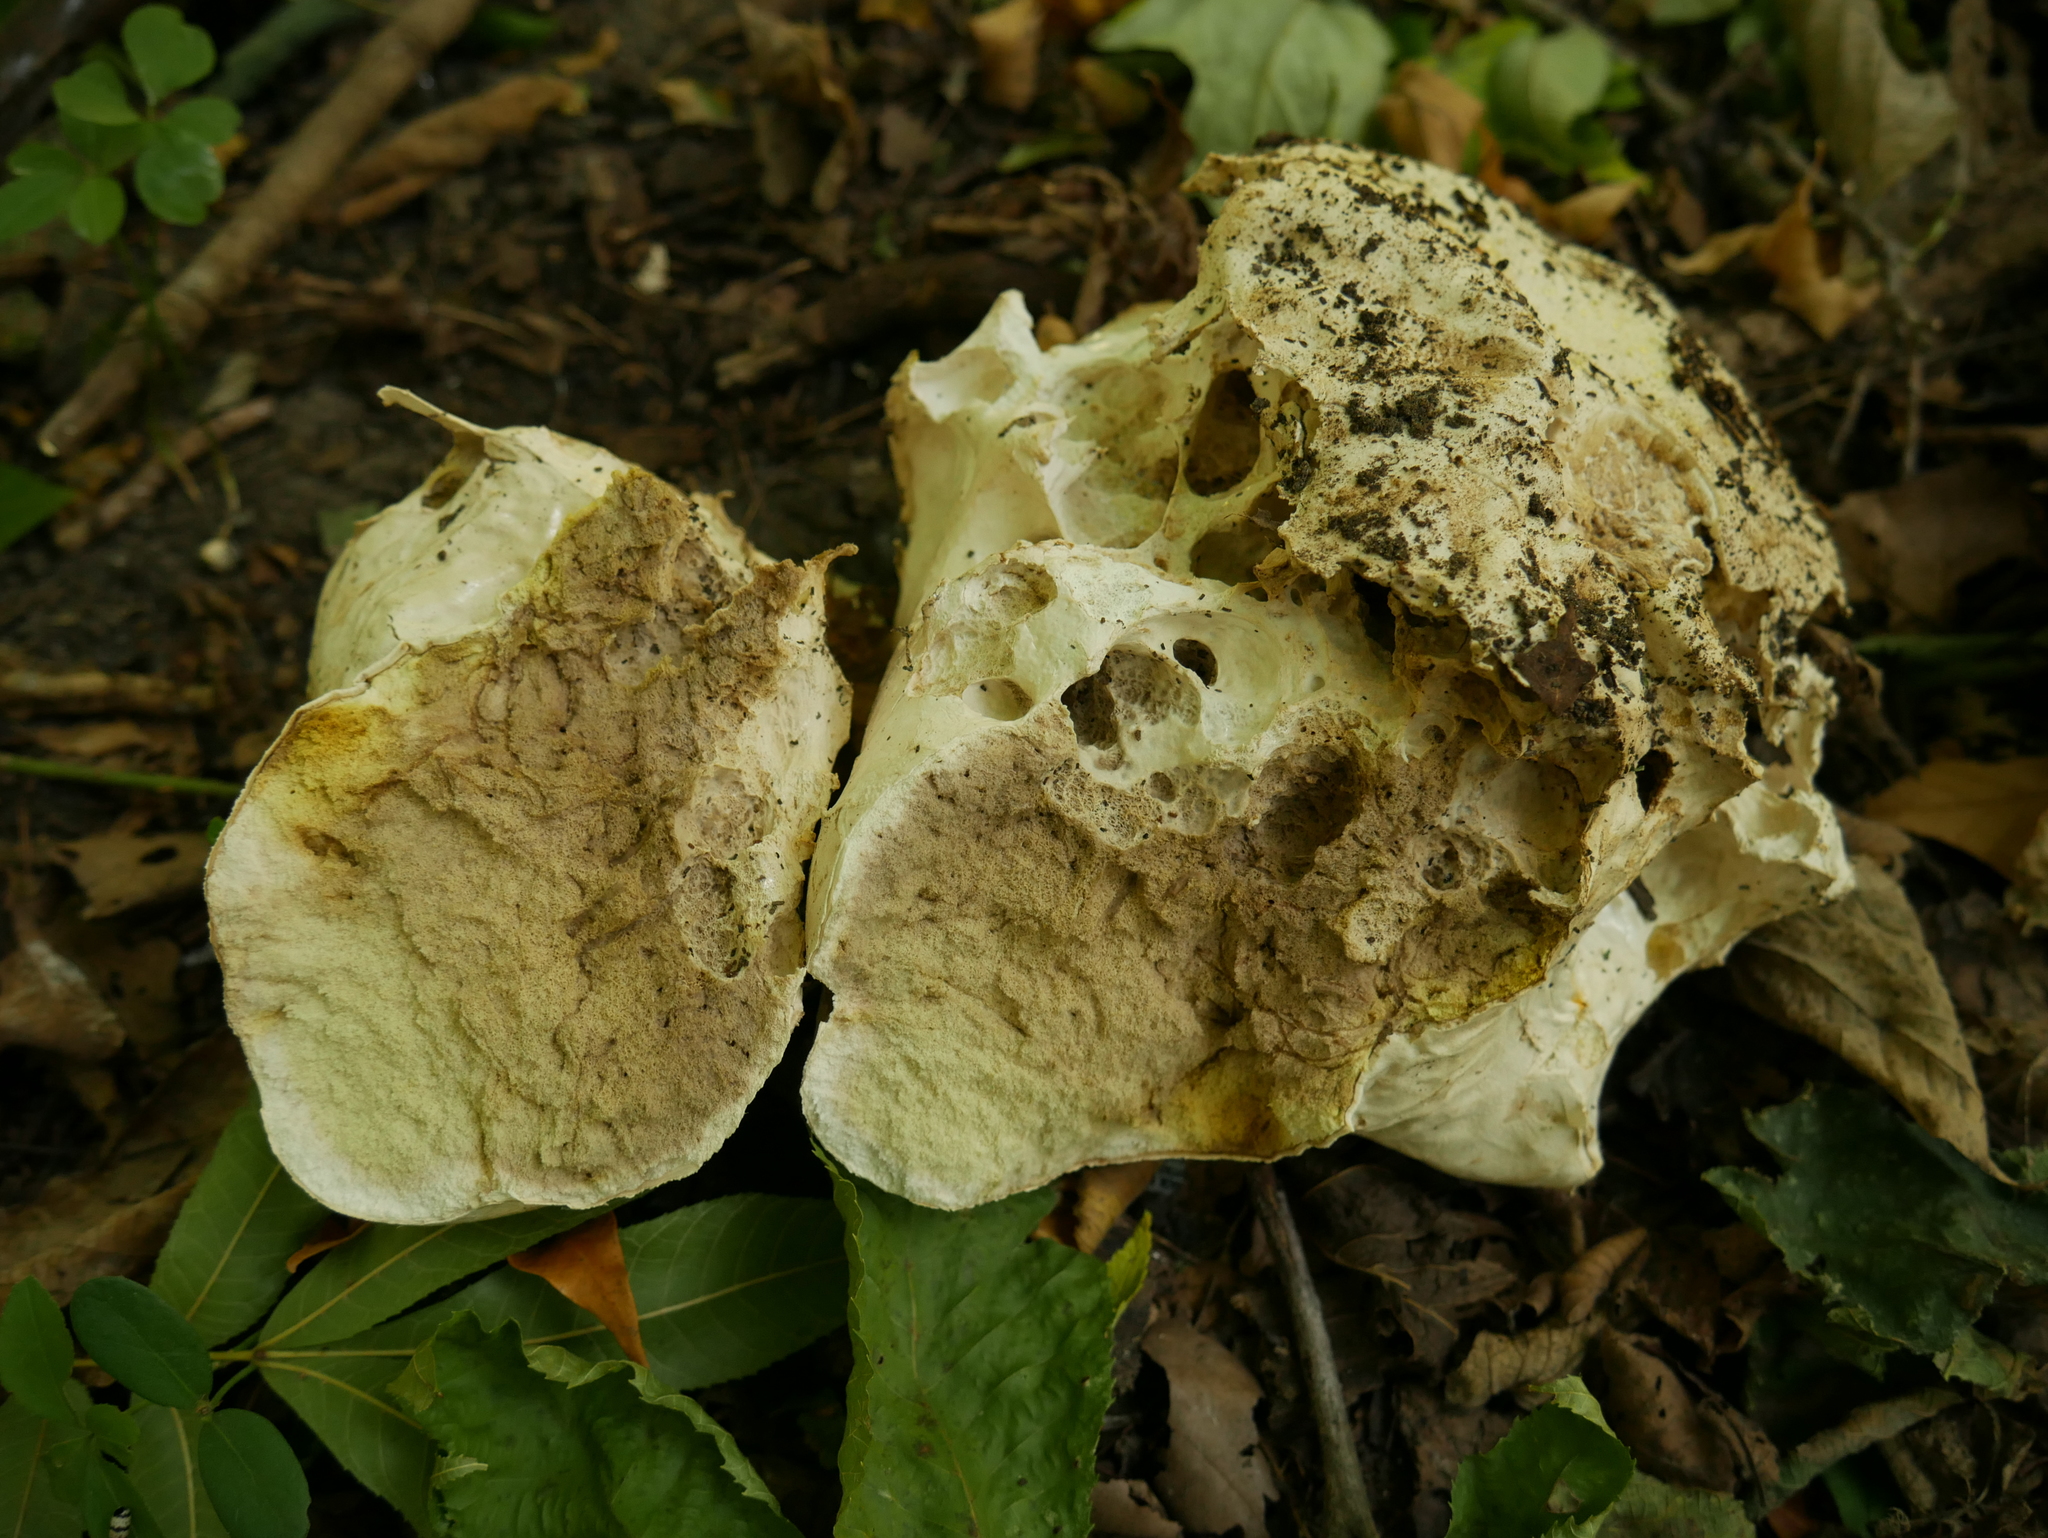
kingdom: Fungi
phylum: Basidiomycota
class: Agaricomycetes
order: Agaricales
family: Lycoperdaceae
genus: Calvatia
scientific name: Calvatia gigantea
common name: Giant puffball
